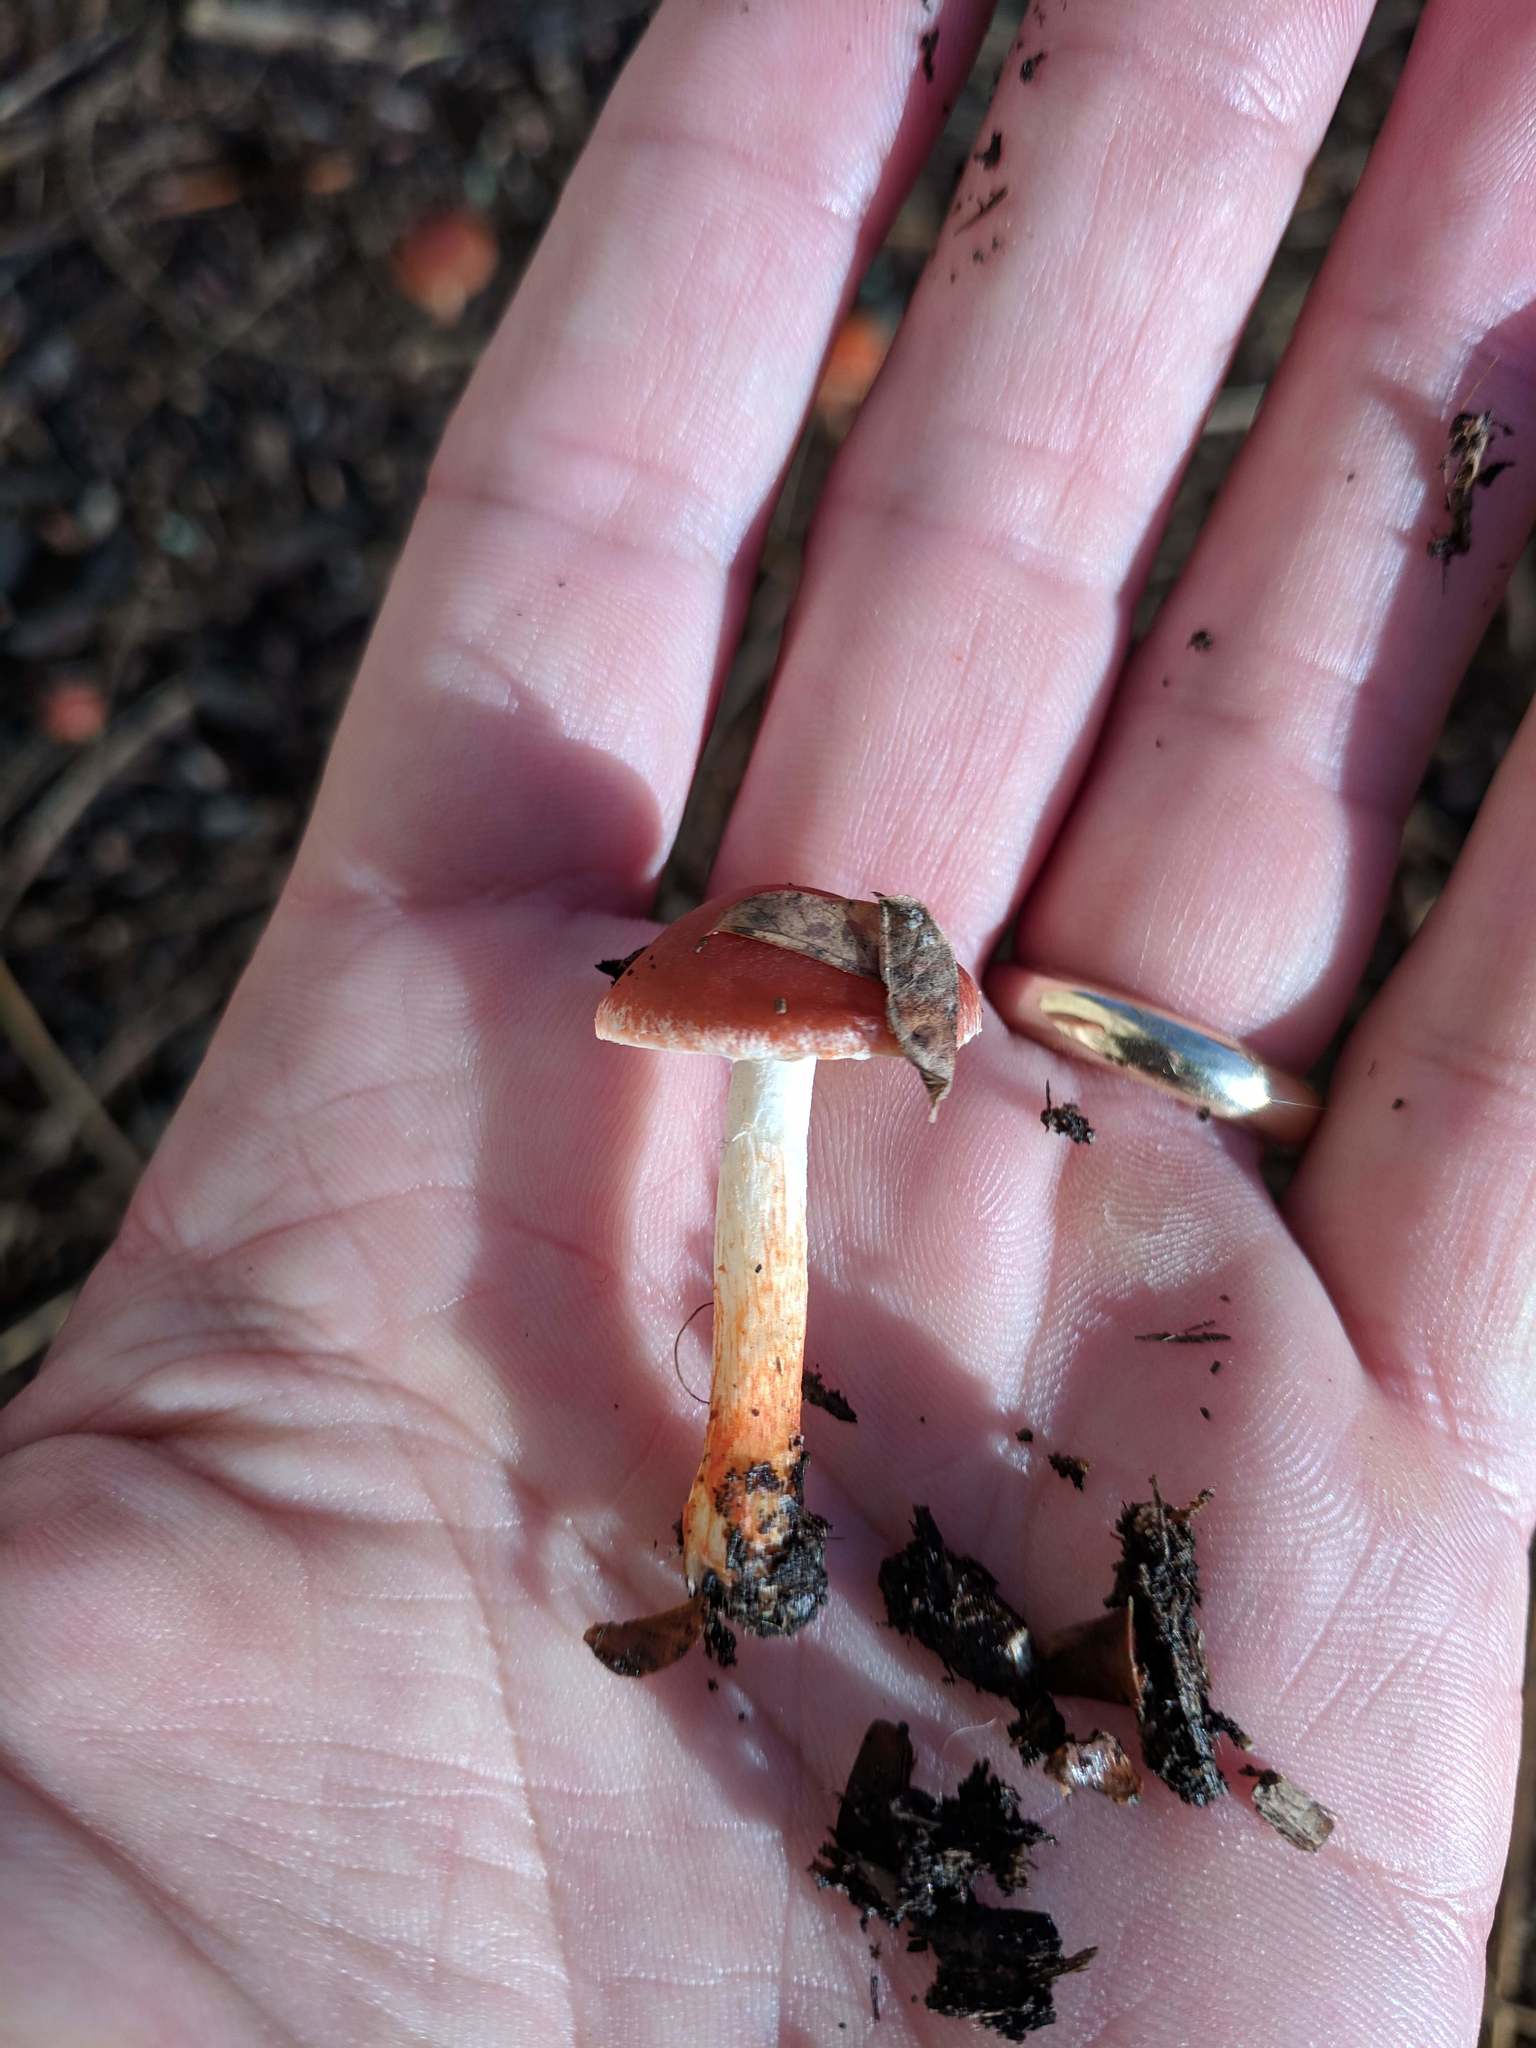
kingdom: Fungi
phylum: Basidiomycota
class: Agaricomycetes
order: Agaricales
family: Strophariaceae
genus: Leratiomyces
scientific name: Leratiomyces ceres
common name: Redlead roundhead
